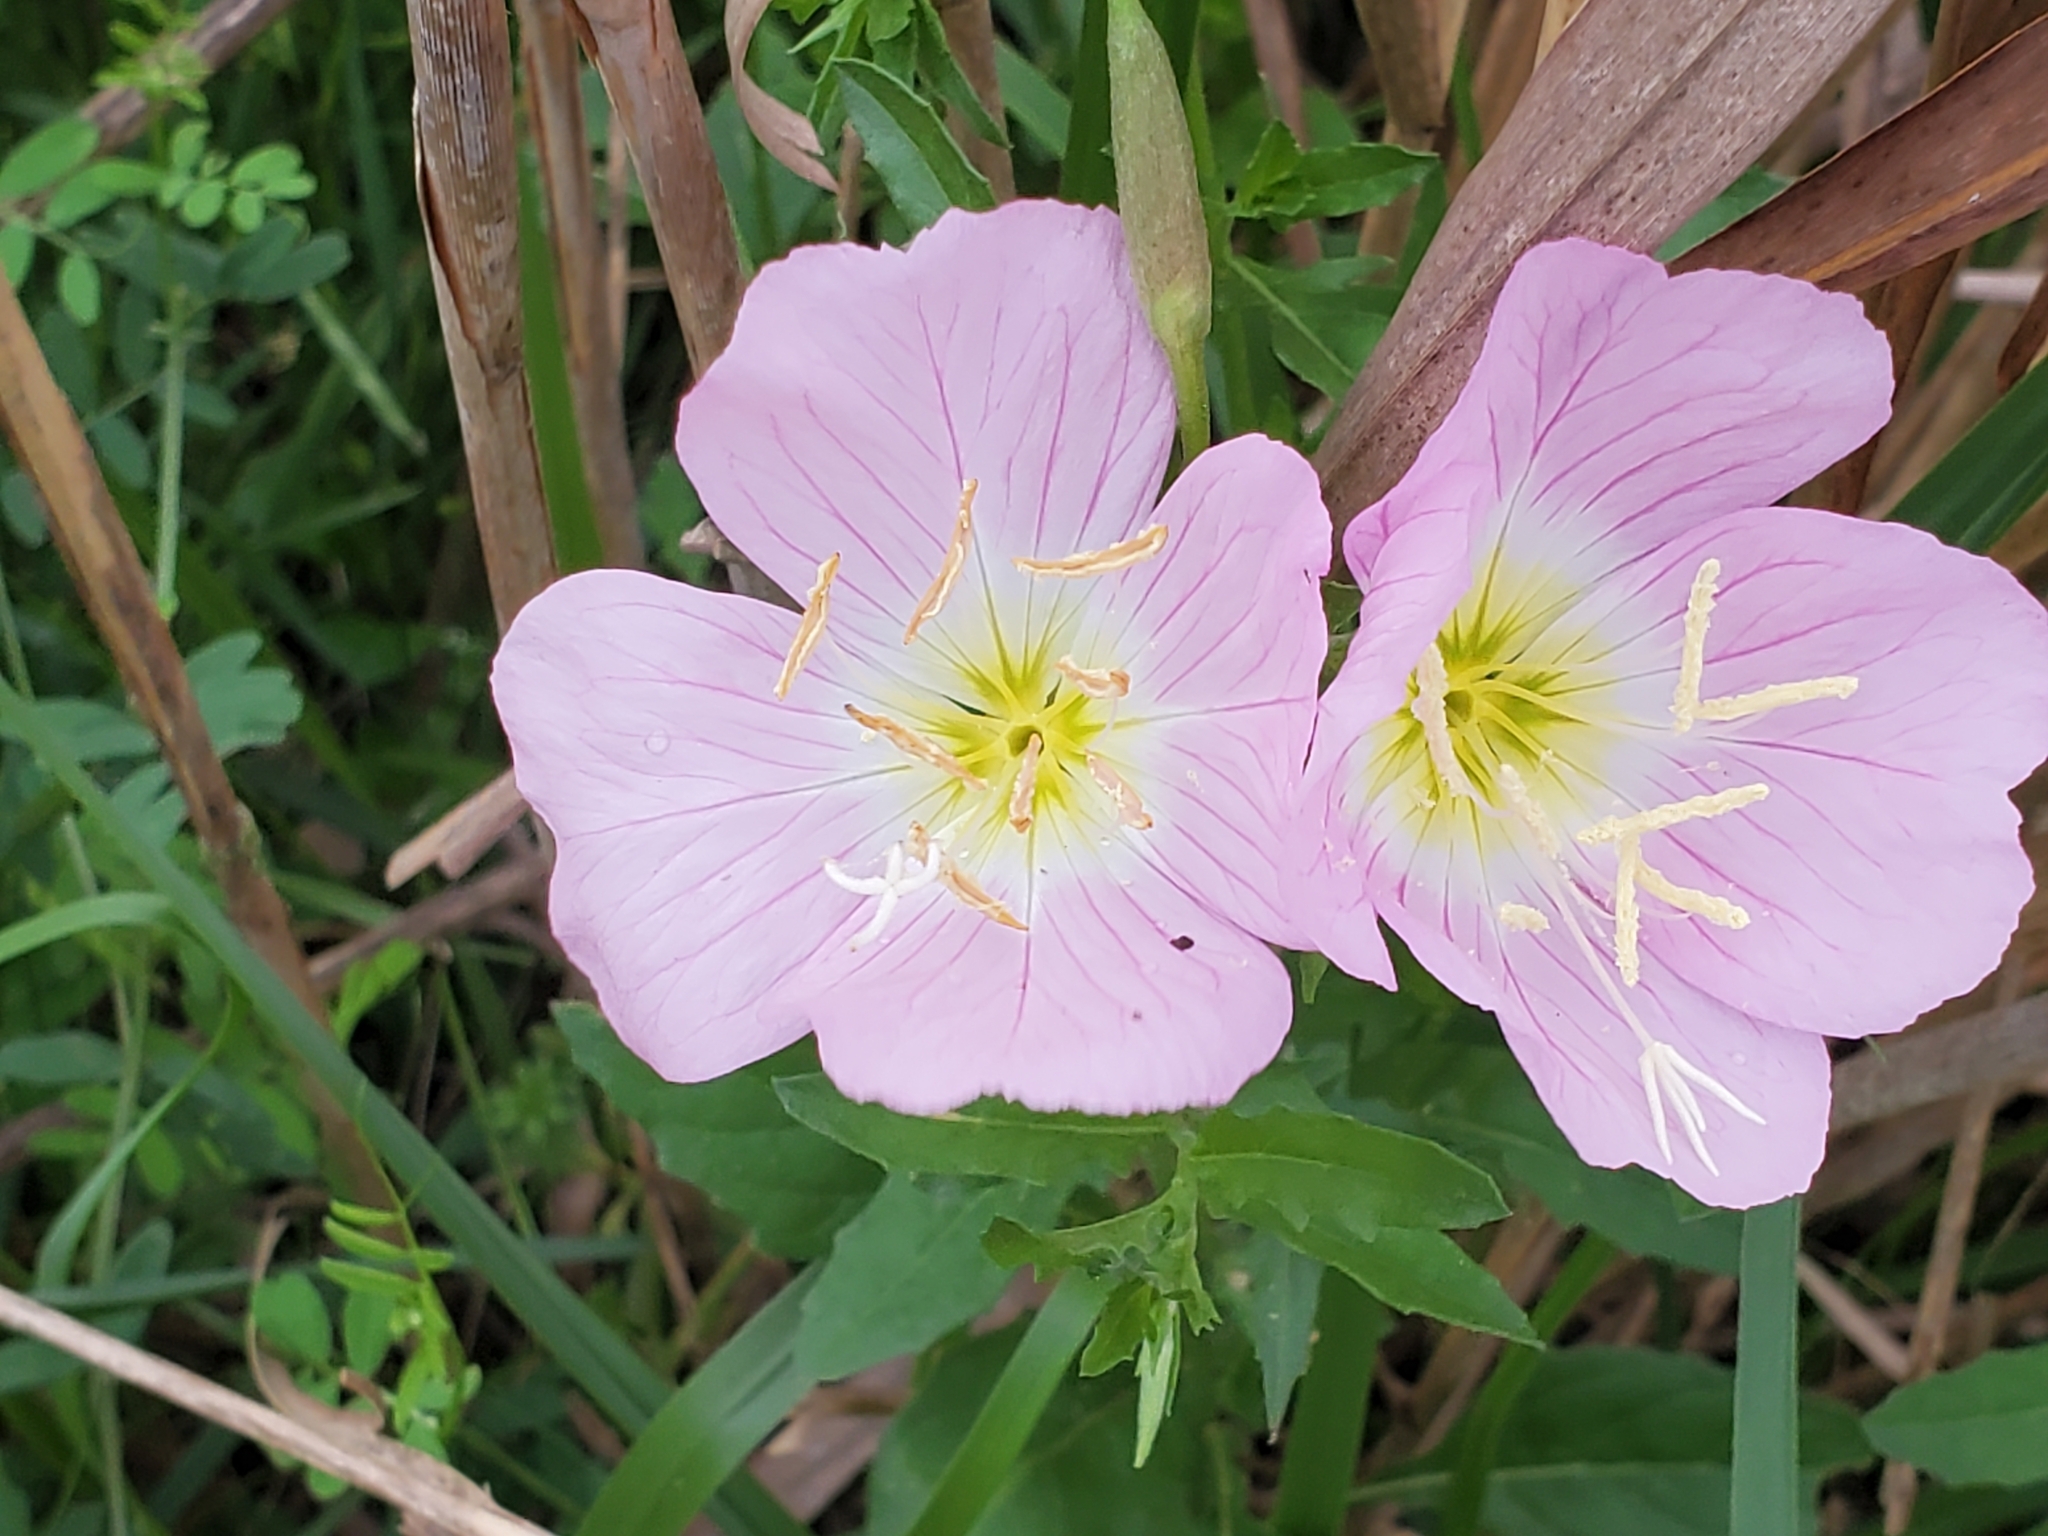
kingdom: Plantae
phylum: Tracheophyta
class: Magnoliopsida
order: Myrtales
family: Onagraceae
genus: Oenothera
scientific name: Oenothera speciosa
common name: White evening-primrose
